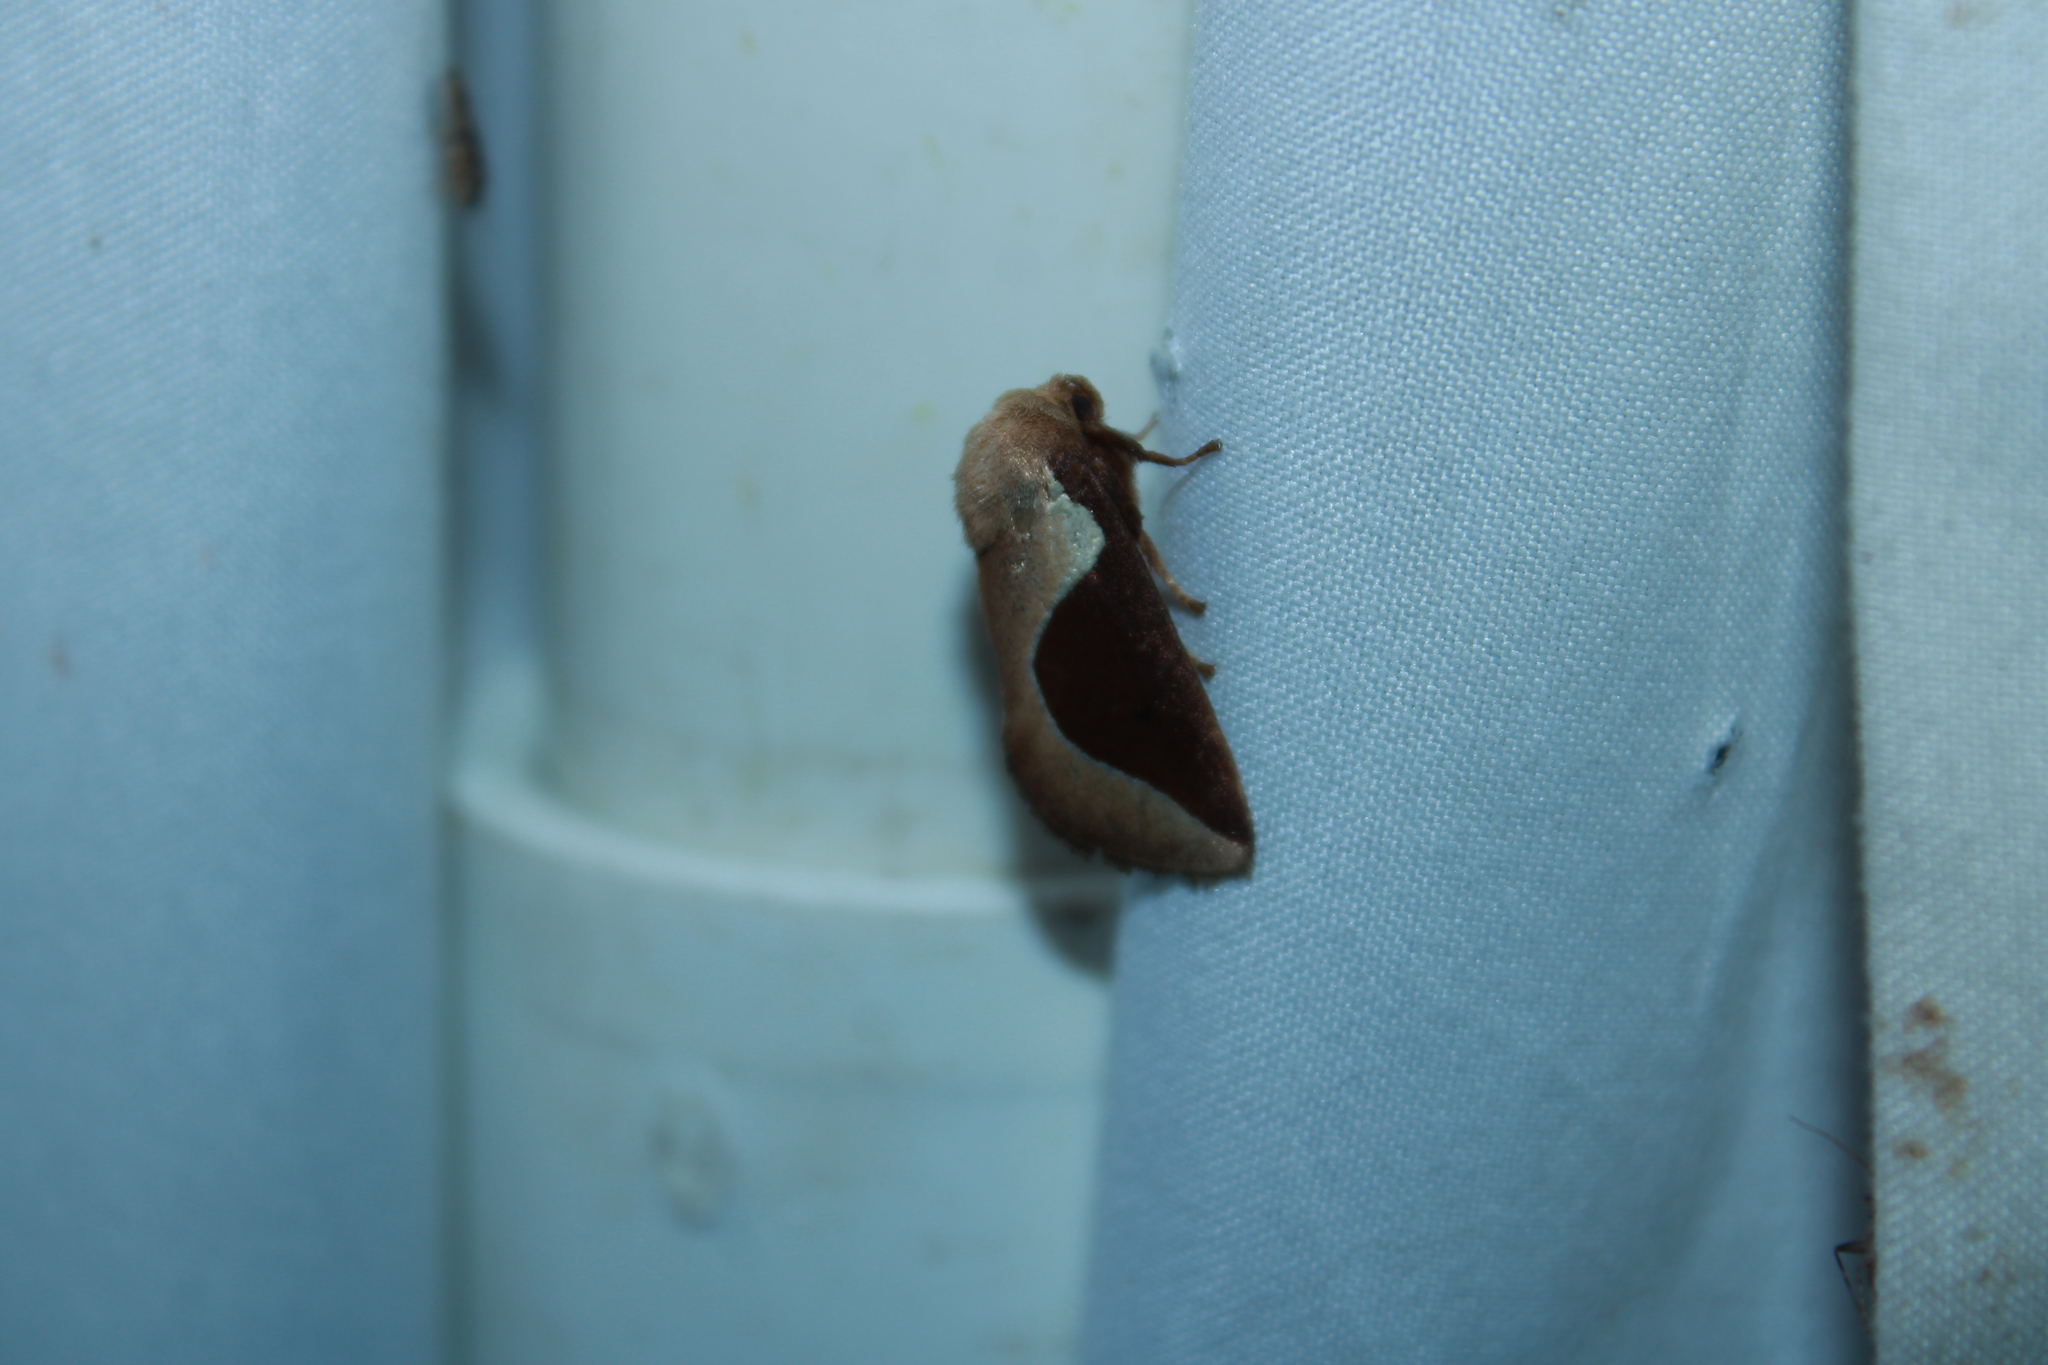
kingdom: Animalia
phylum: Arthropoda
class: Insecta
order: Lepidoptera
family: Limacodidae
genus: Prolimacodes
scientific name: Prolimacodes badia
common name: Skiff moth
